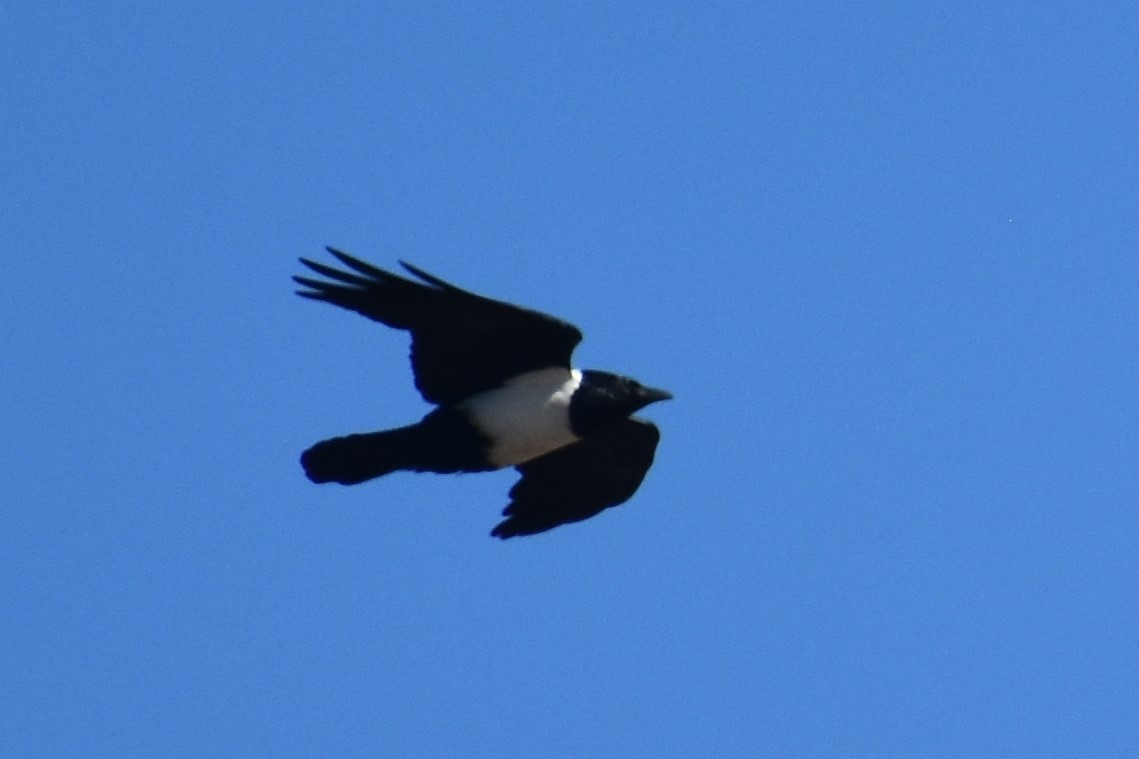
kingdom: Animalia
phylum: Chordata
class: Aves
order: Passeriformes
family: Corvidae
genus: Corvus
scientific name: Corvus albus
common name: Pied crow
